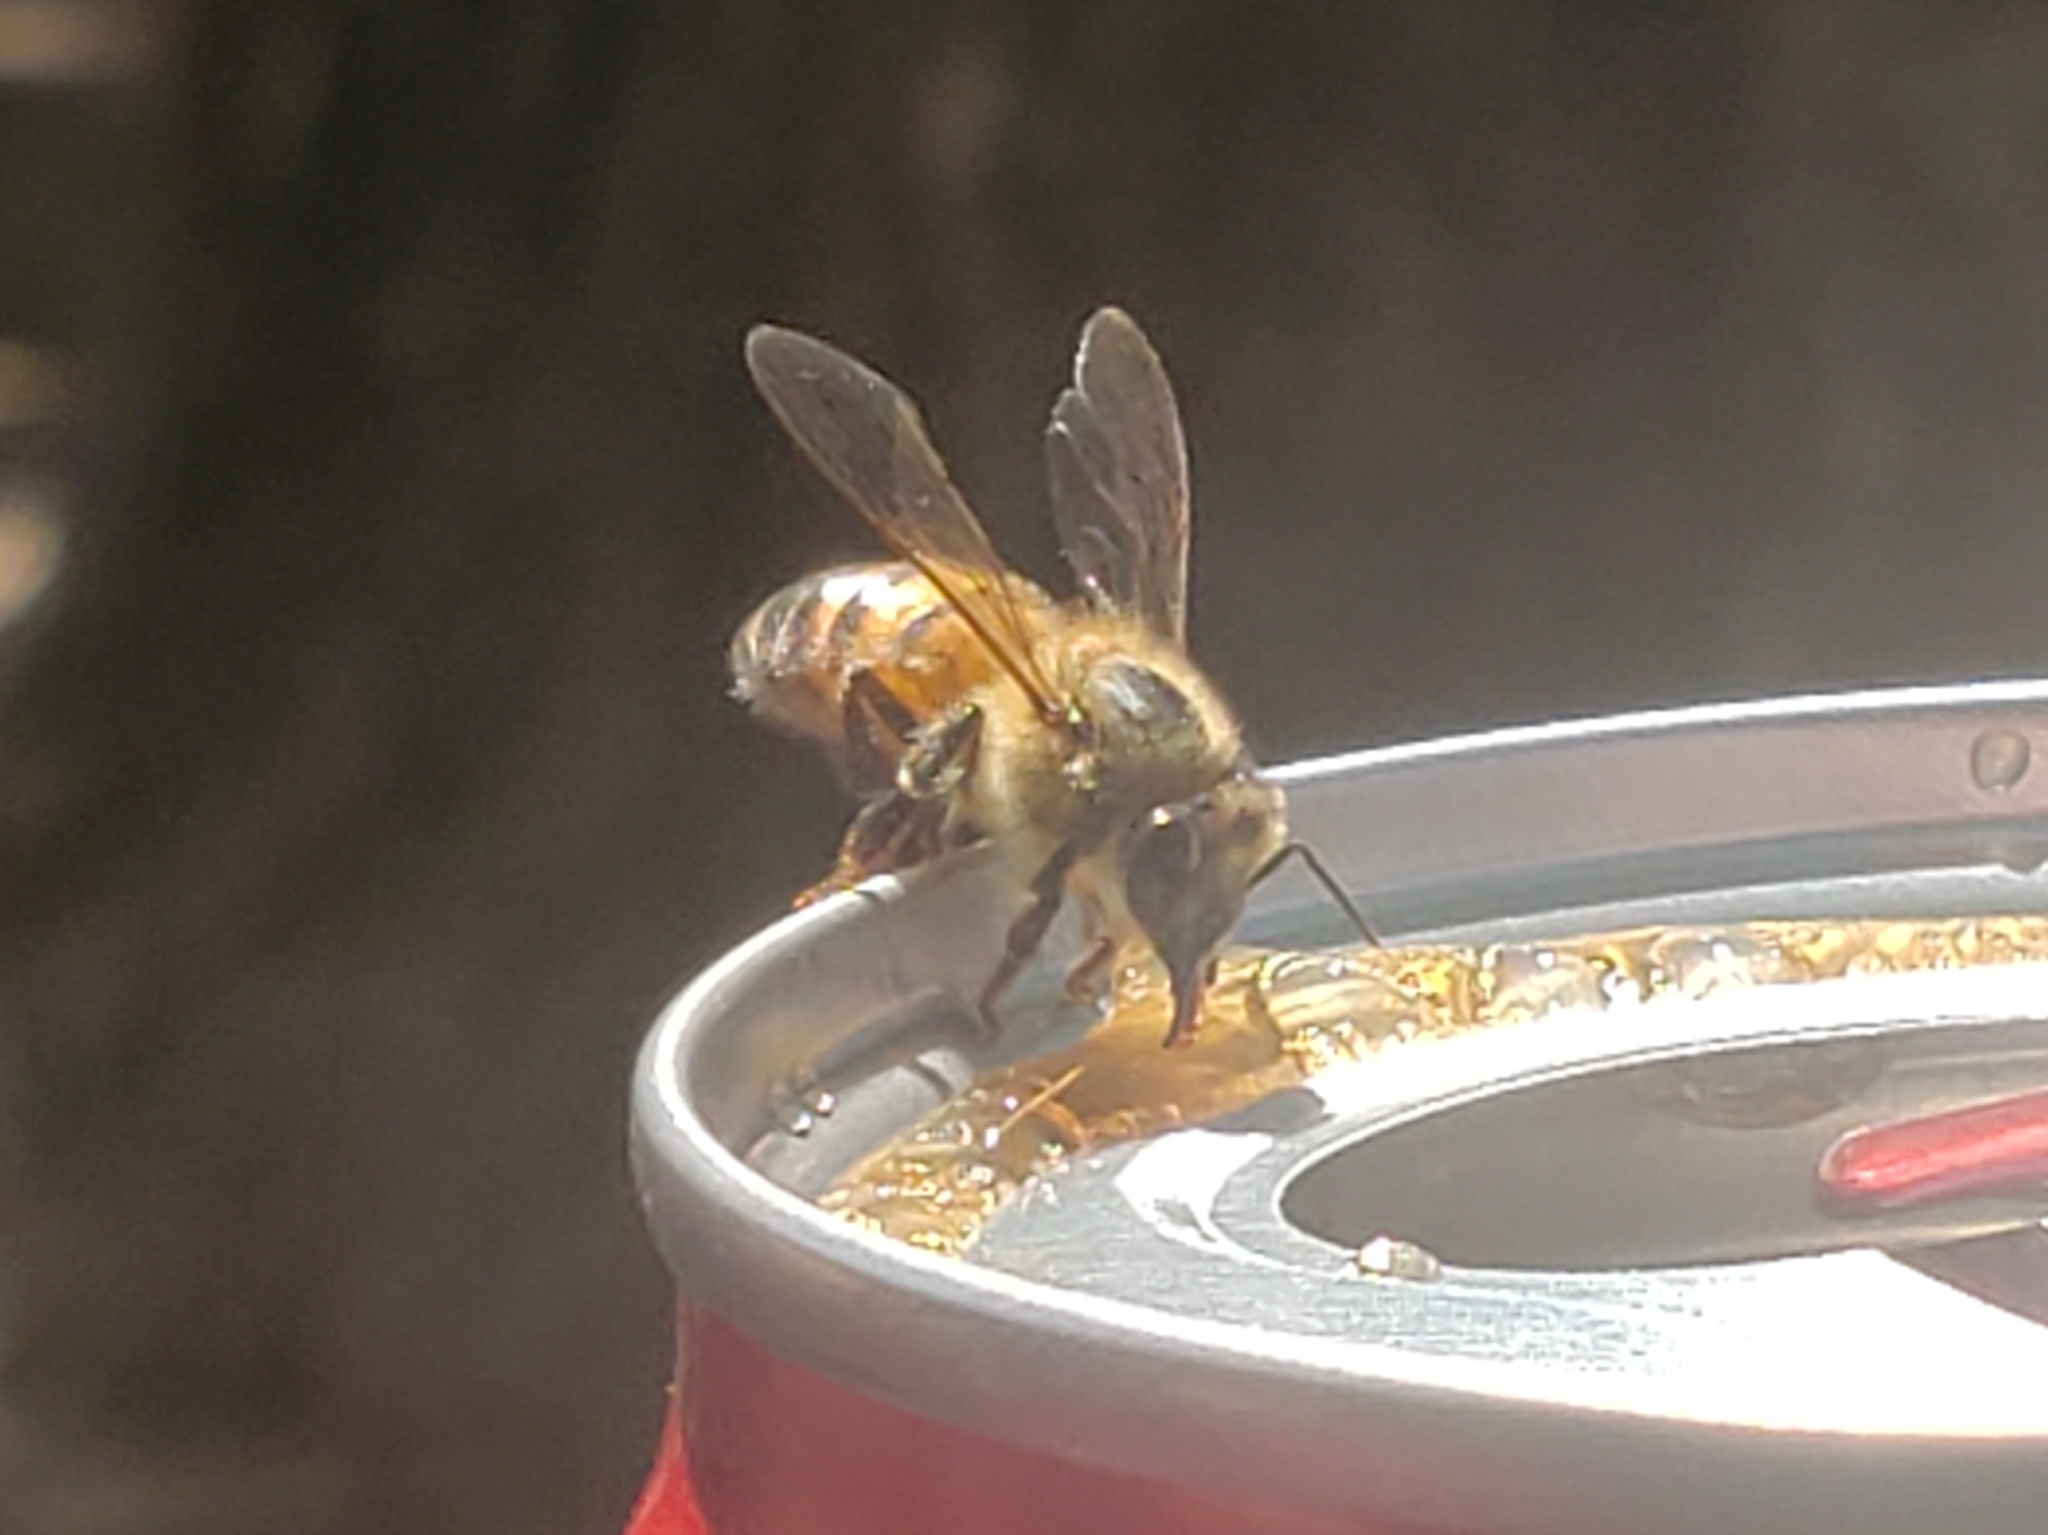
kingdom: Animalia
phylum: Arthropoda
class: Insecta
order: Hymenoptera
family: Apidae
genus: Apis
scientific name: Apis mellifera
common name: Honey bee
